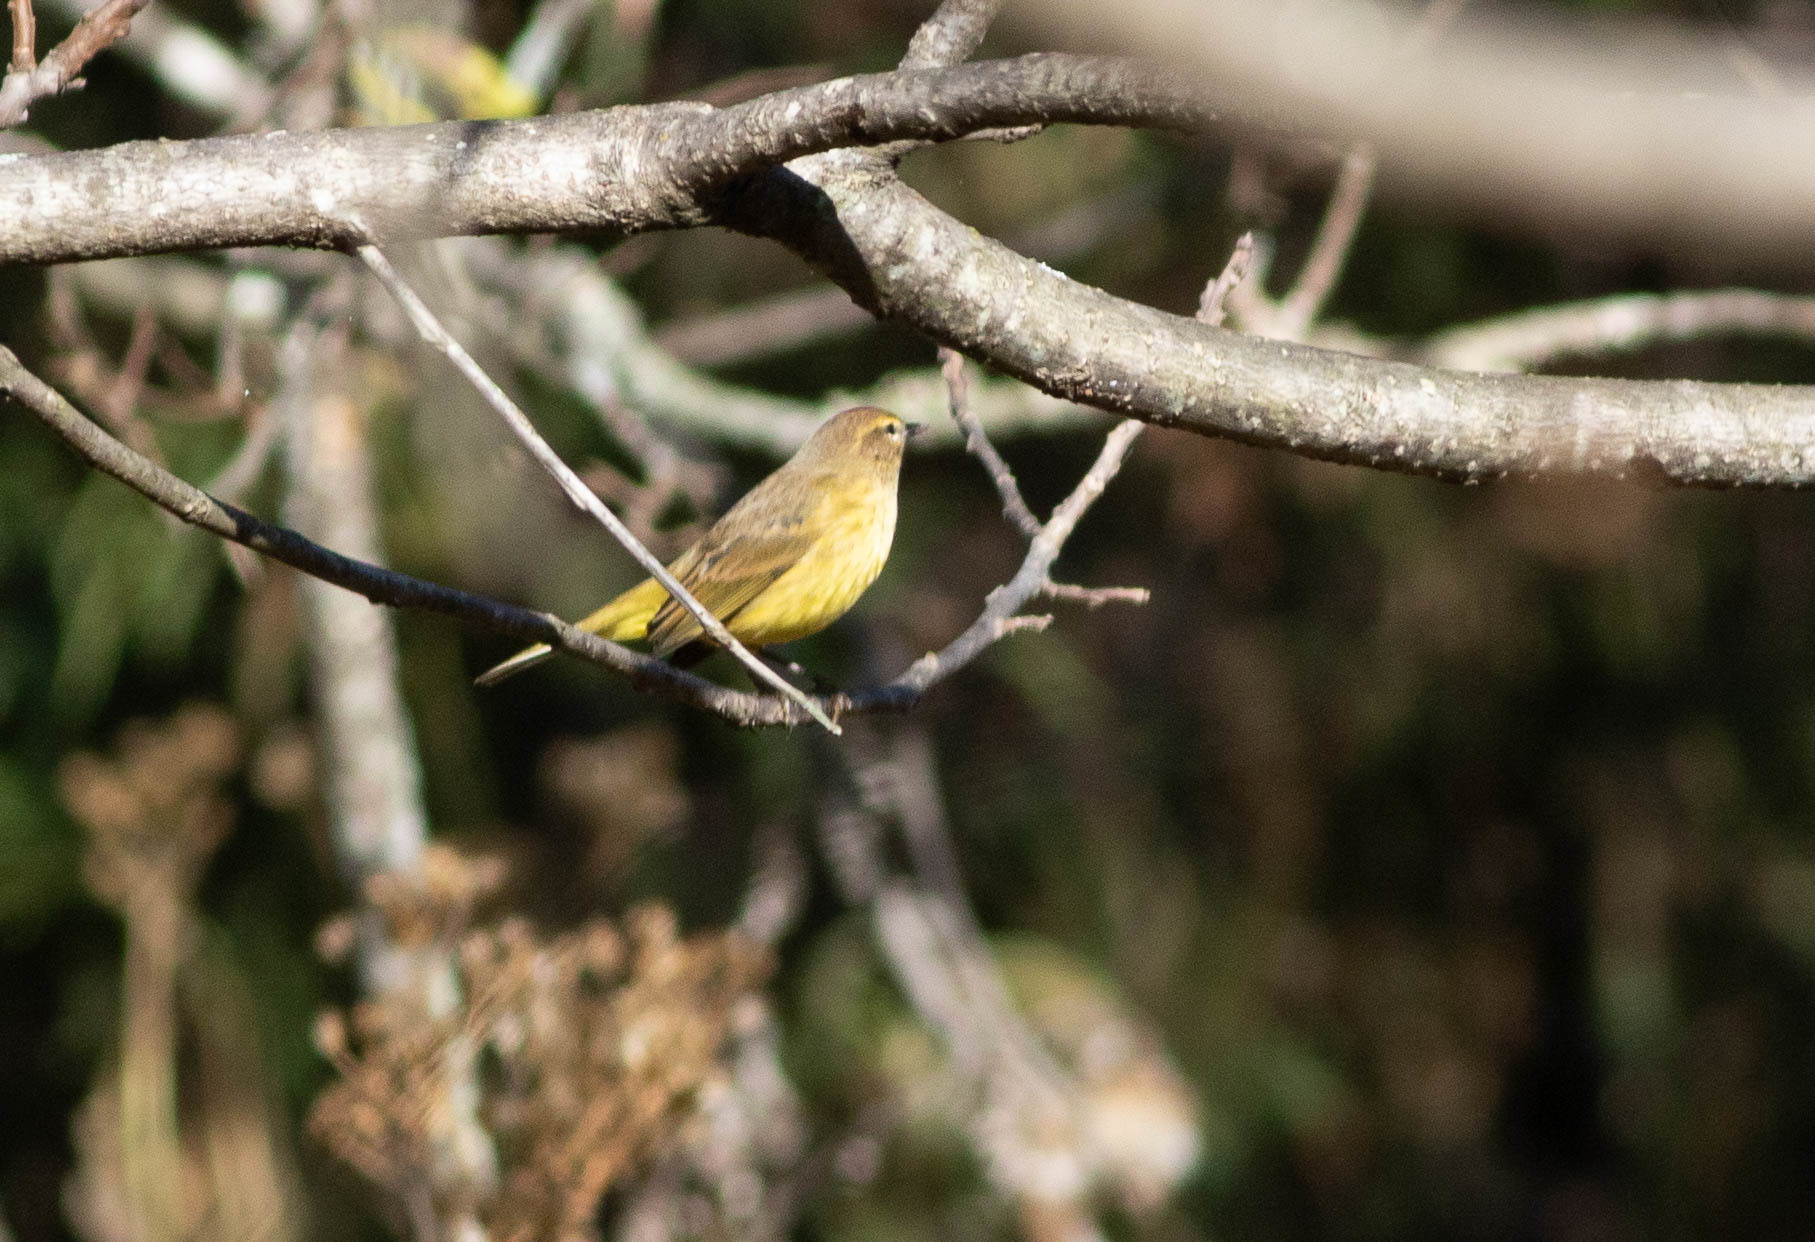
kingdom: Animalia
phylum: Chordata
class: Aves
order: Passeriformes
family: Parulidae
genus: Setophaga
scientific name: Setophaga palmarum
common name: Palm warbler
